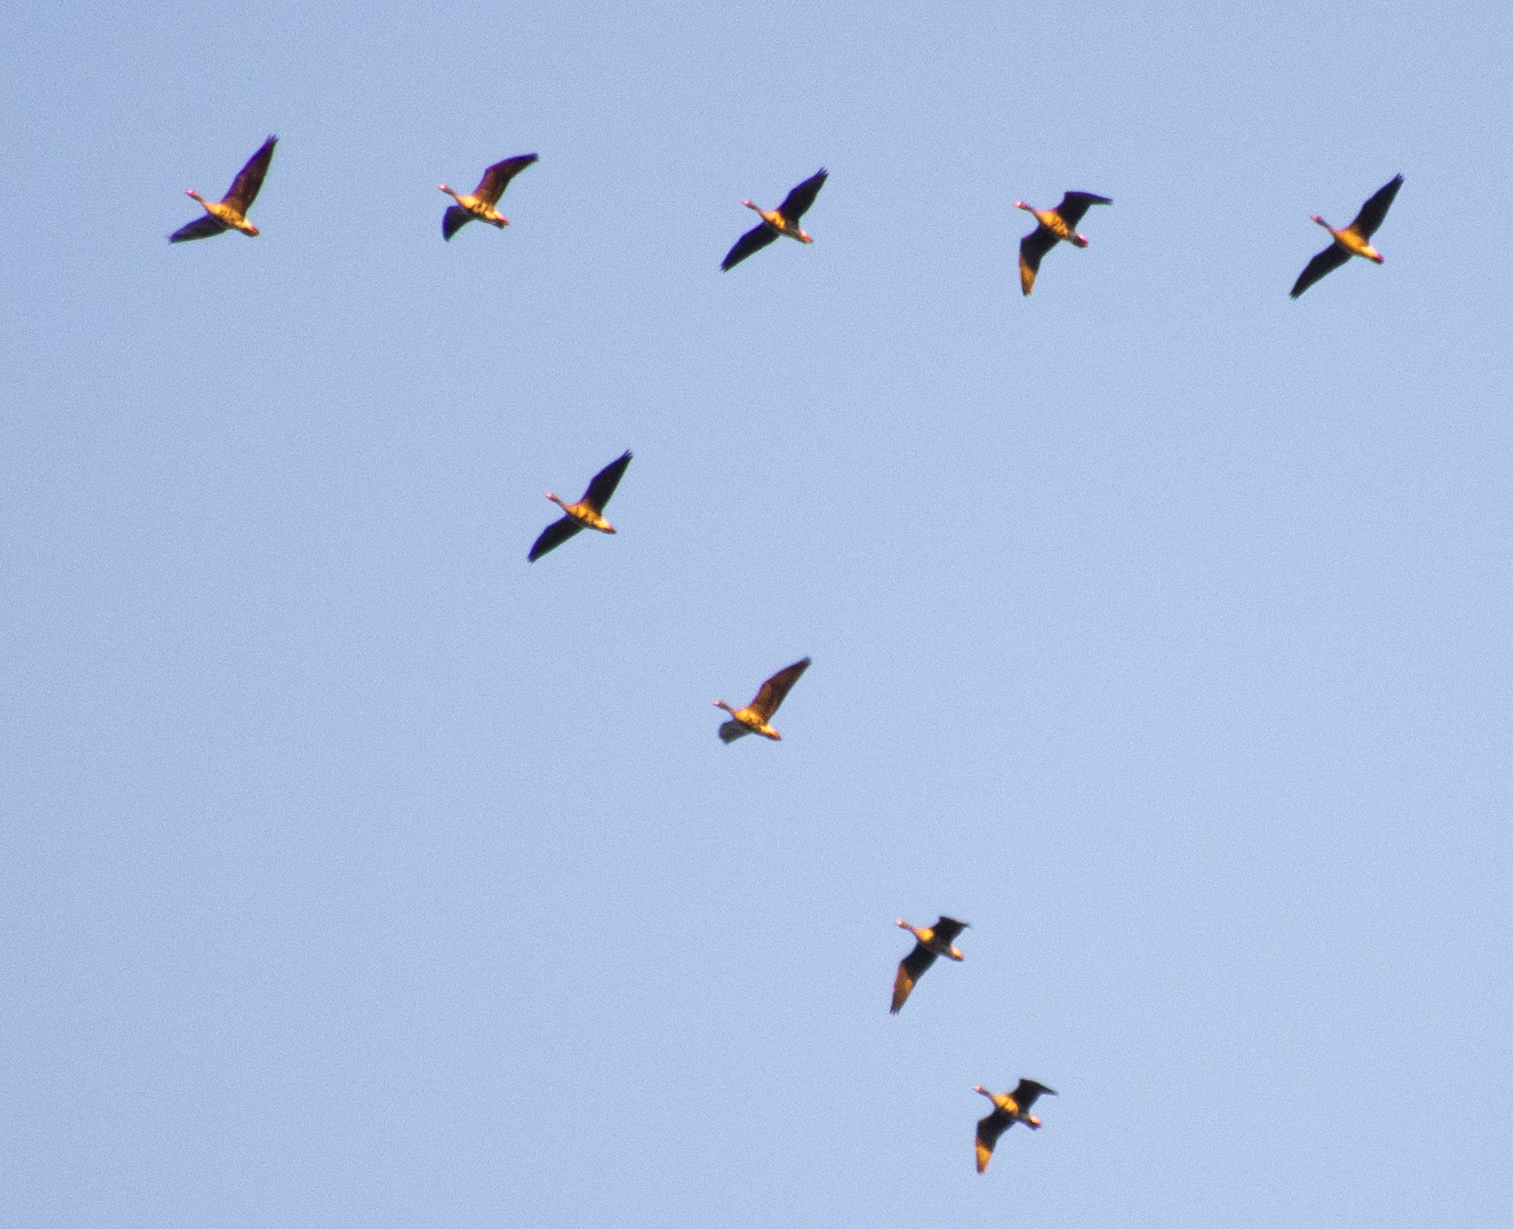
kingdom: Animalia
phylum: Chordata
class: Aves
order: Anseriformes
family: Anatidae
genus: Anser
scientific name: Anser albifrons
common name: Greater white-fronted goose
